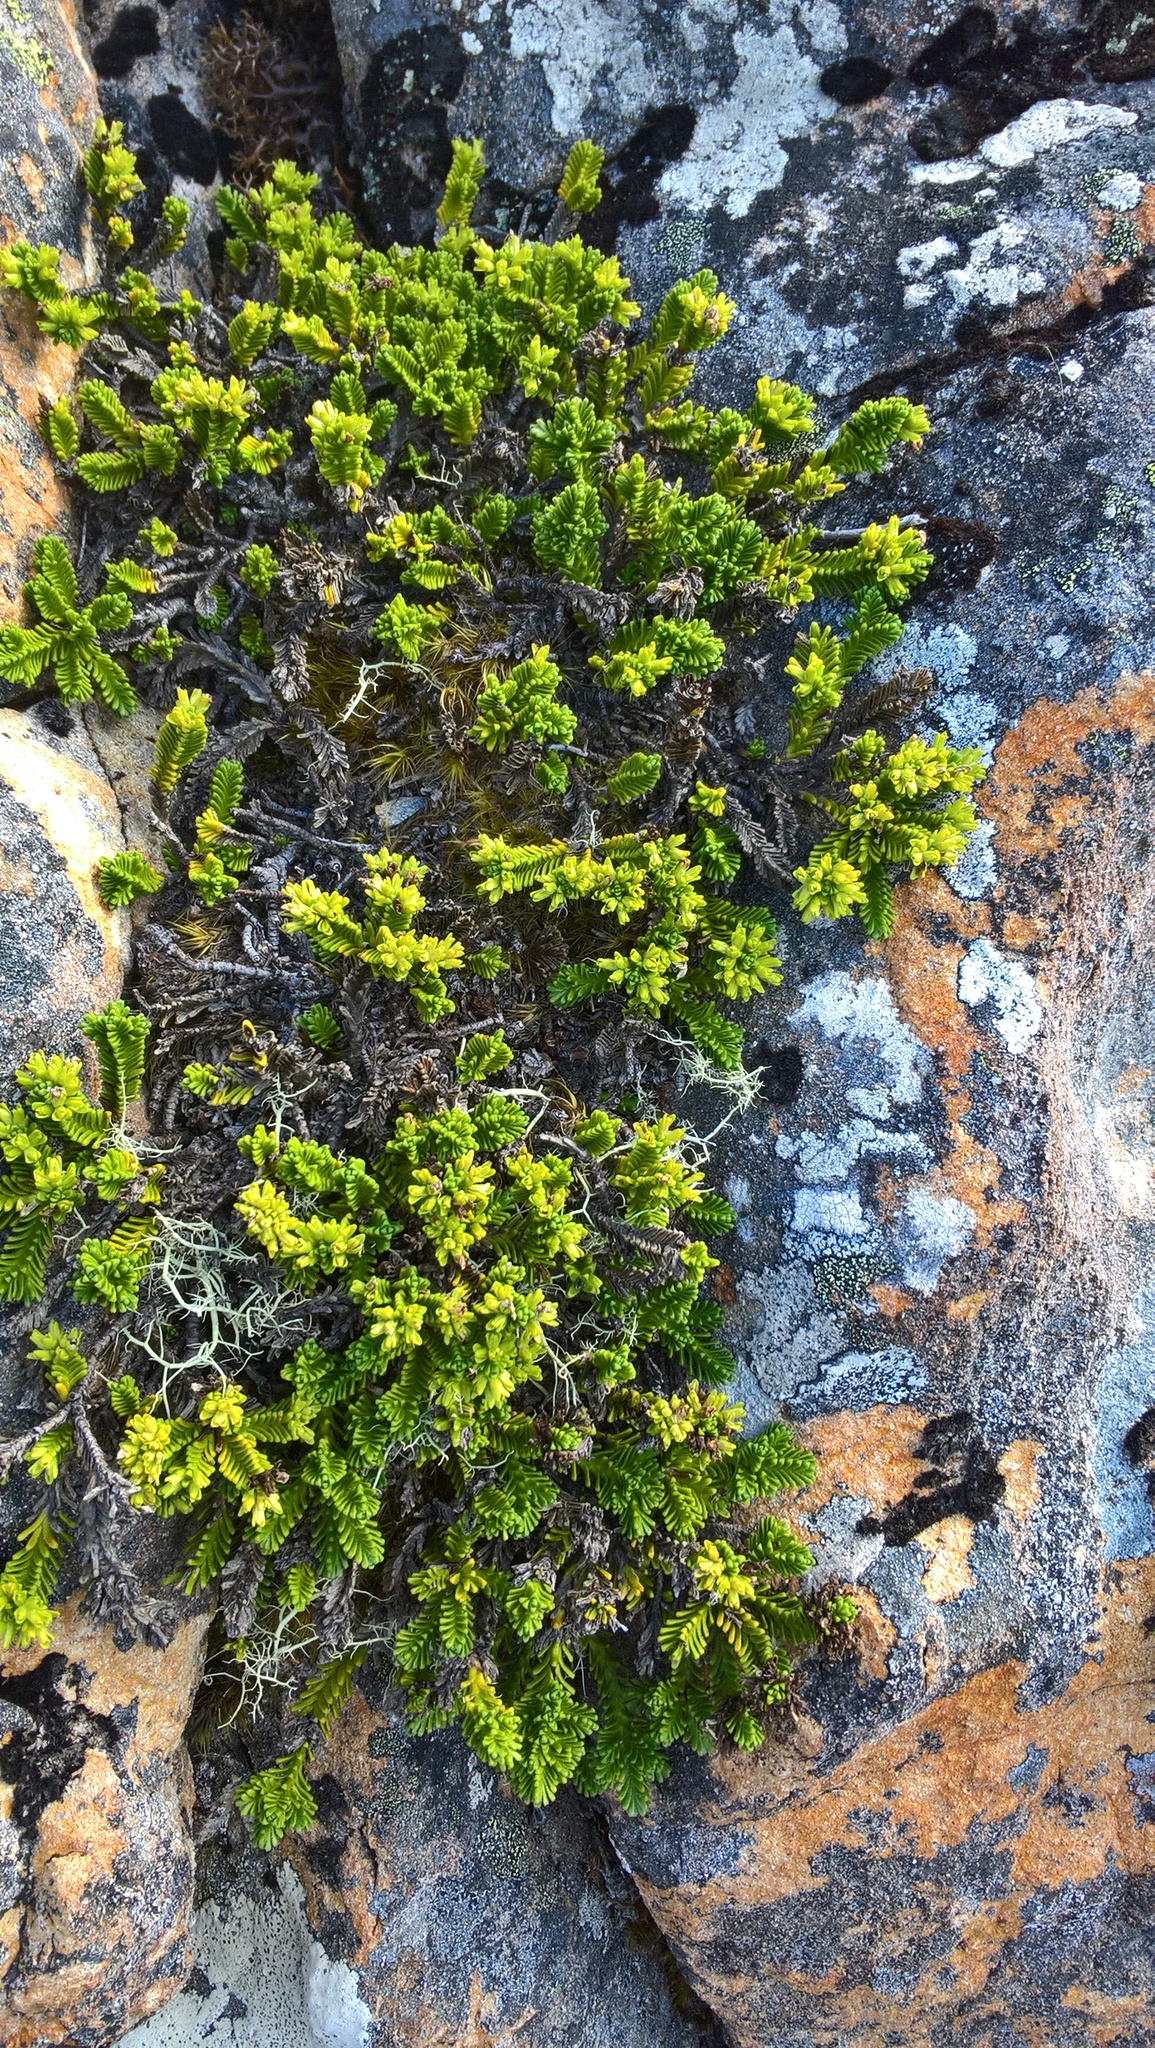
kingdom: Plantae
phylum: Tracheophyta
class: Magnoliopsida
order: Lamiales
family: Plantaginaceae
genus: Veronica
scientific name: Veronica hookeri
